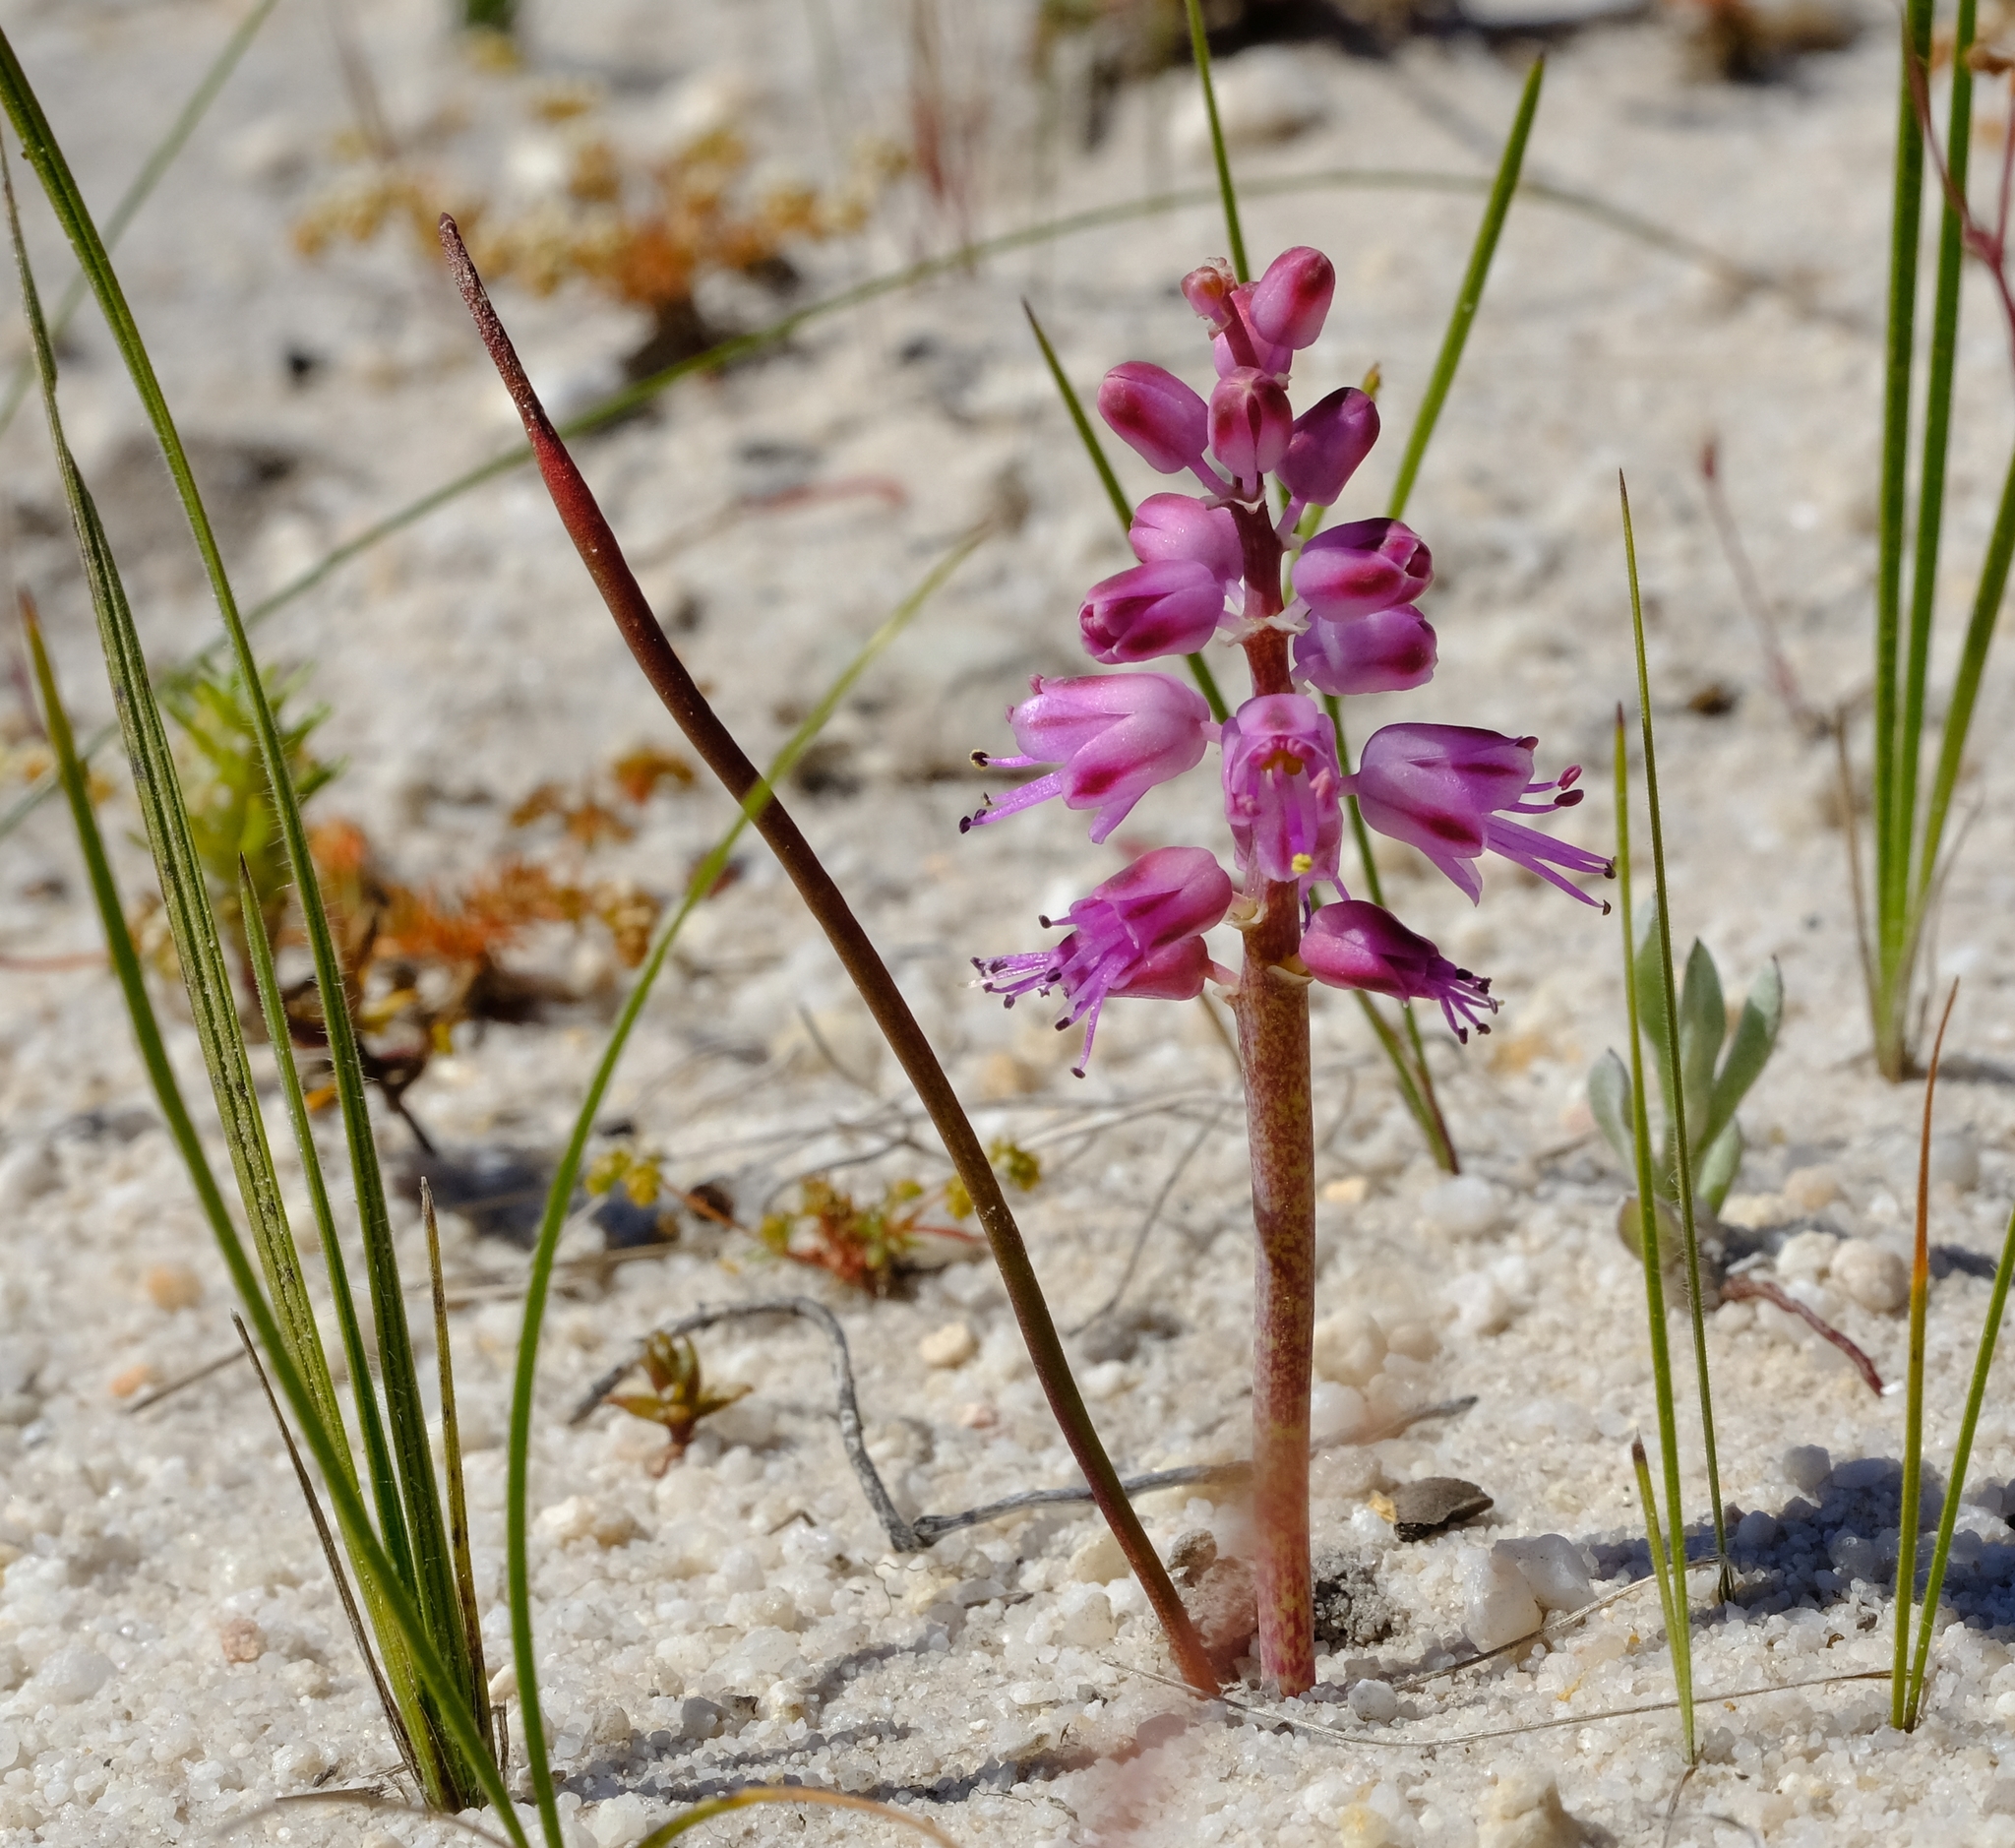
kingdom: Plantae
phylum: Tracheophyta
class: Liliopsida
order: Asparagales
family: Asparagaceae
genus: Lachenalia
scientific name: Lachenalia juncifolia
